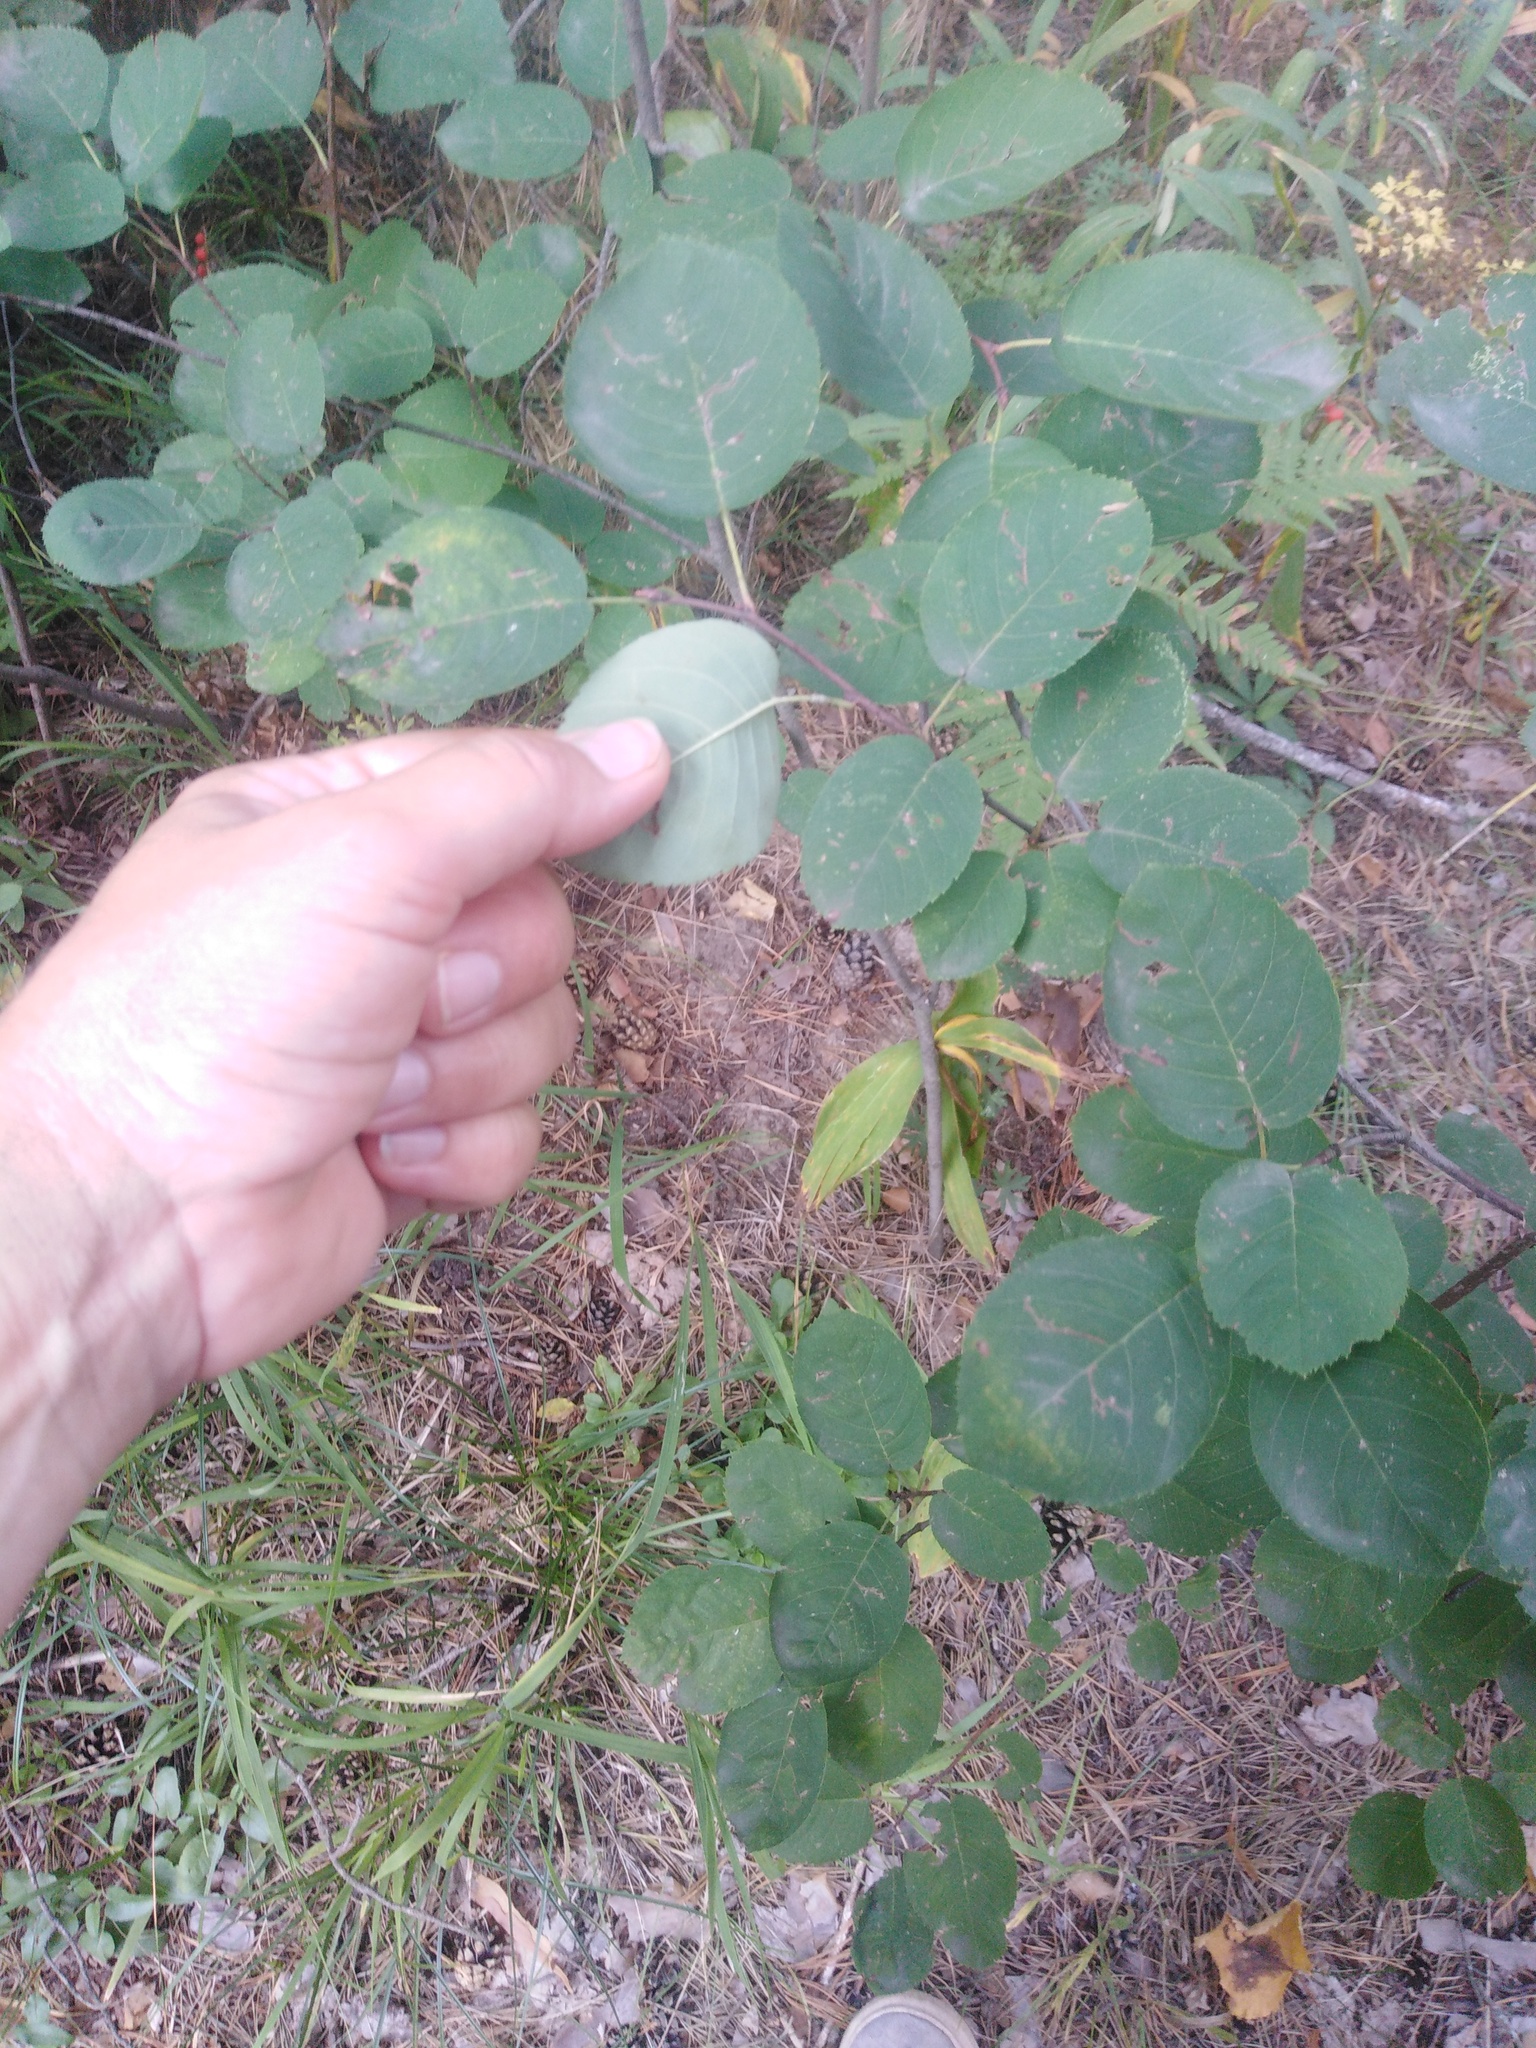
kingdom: Plantae
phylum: Tracheophyta
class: Magnoliopsida
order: Rosales
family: Rosaceae
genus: Amelanchier
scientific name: Amelanchier
